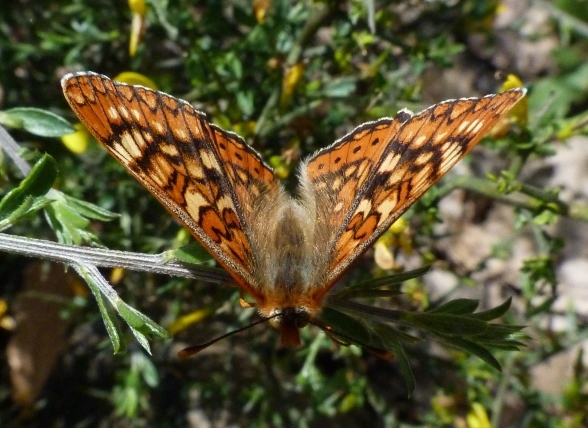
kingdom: Animalia
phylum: Arthropoda
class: Insecta
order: Lepidoptera
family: Nymphalidae
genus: Euphydryas
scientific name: Euphydryas aurinia
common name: Marsh fritillary
